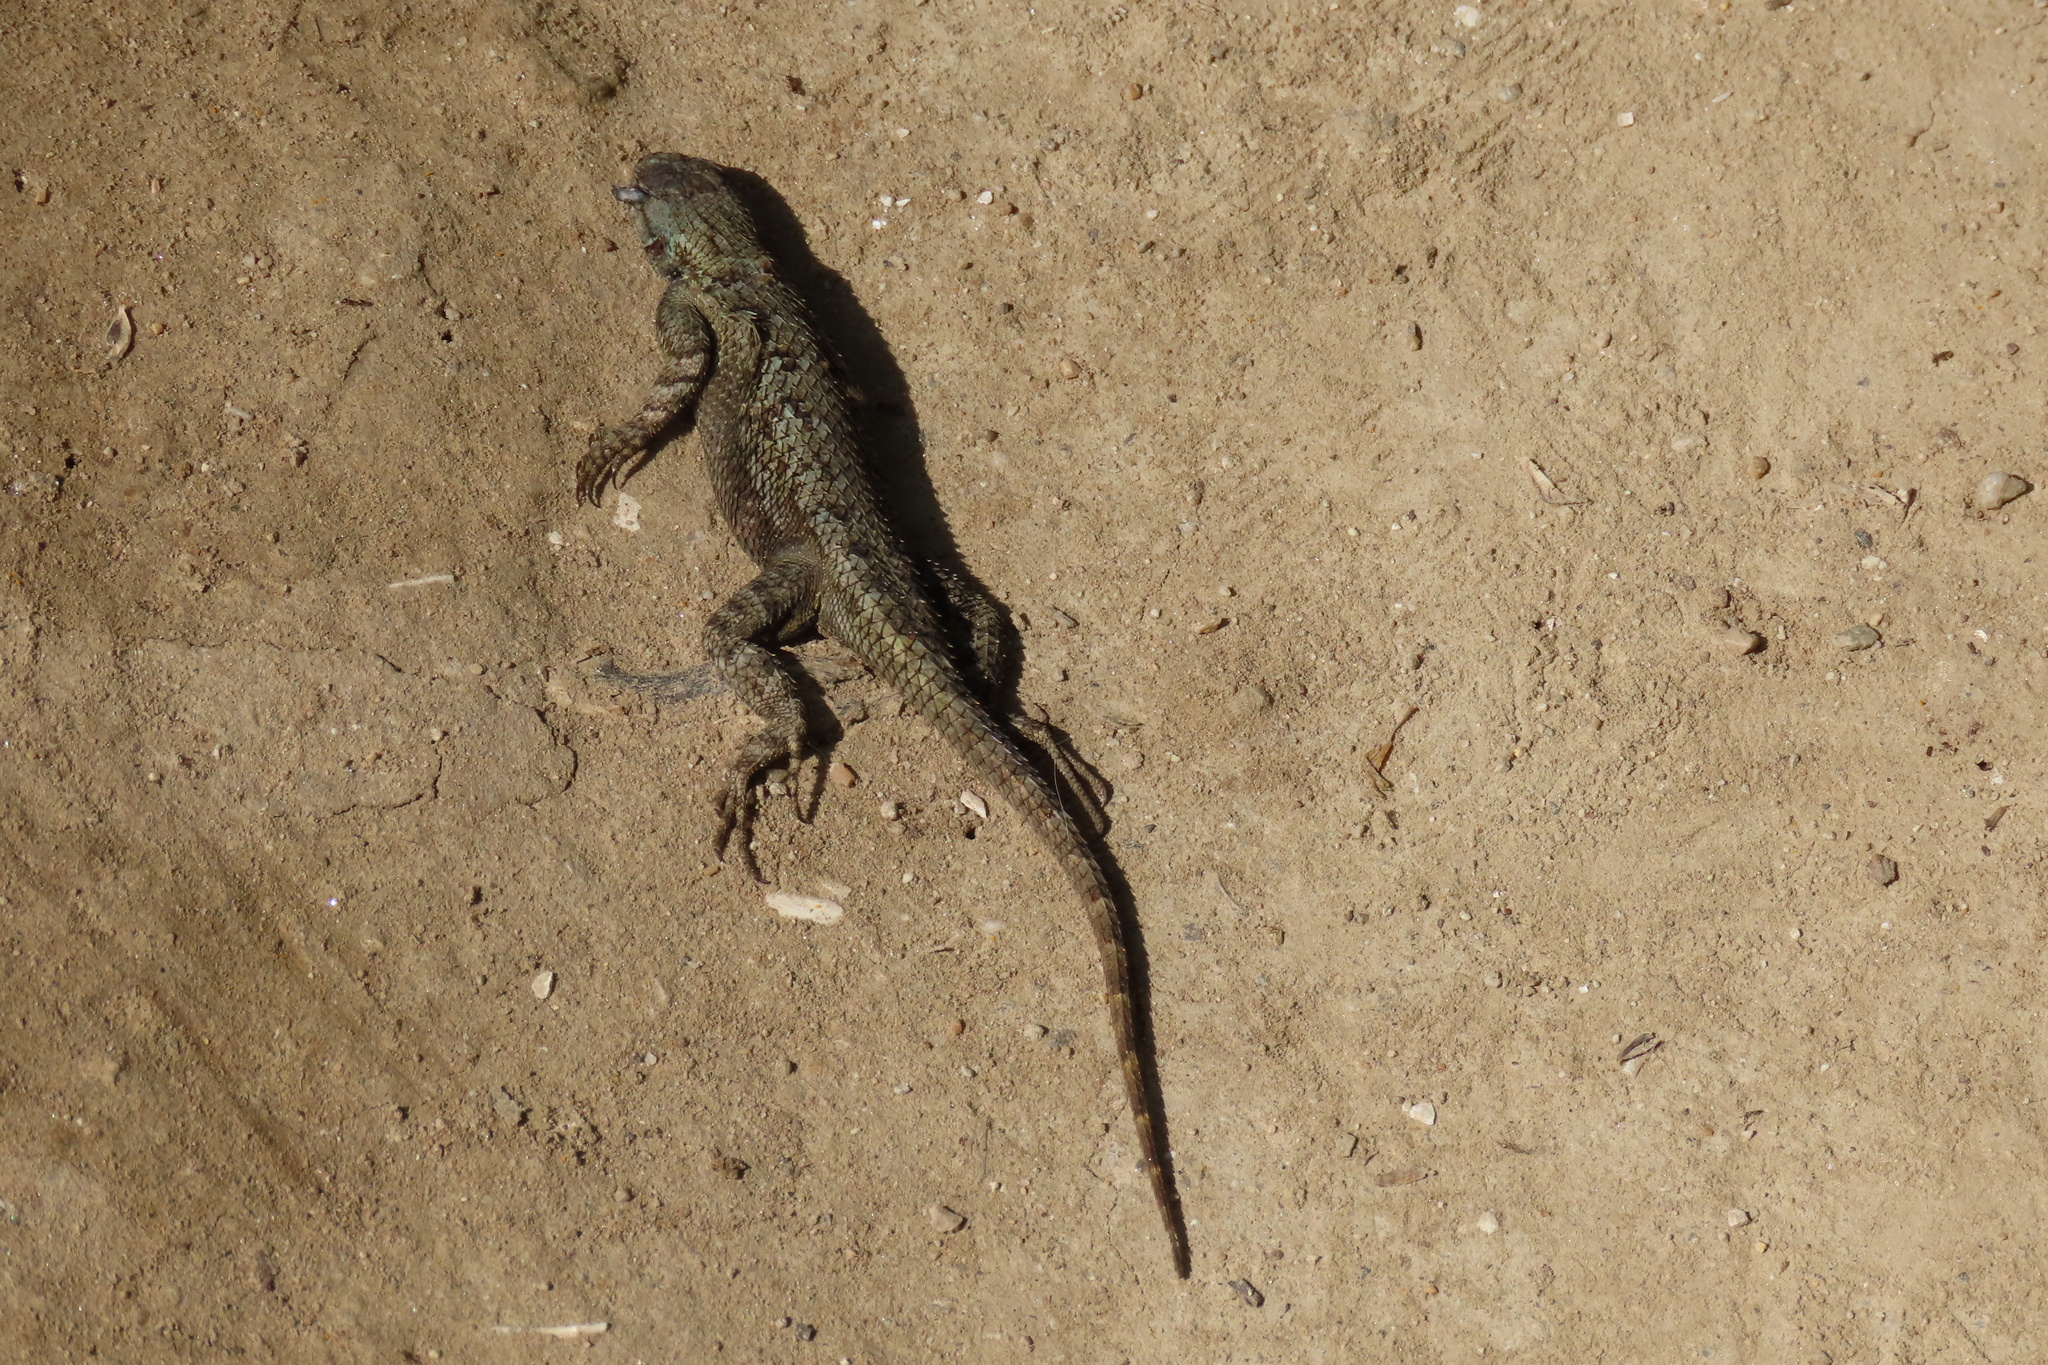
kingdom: Animalia
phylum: Chordata
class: Squamata
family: Phrynosomatidae
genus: Sceloporus
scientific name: Sceloporus occidentalis
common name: Western fence lizard
